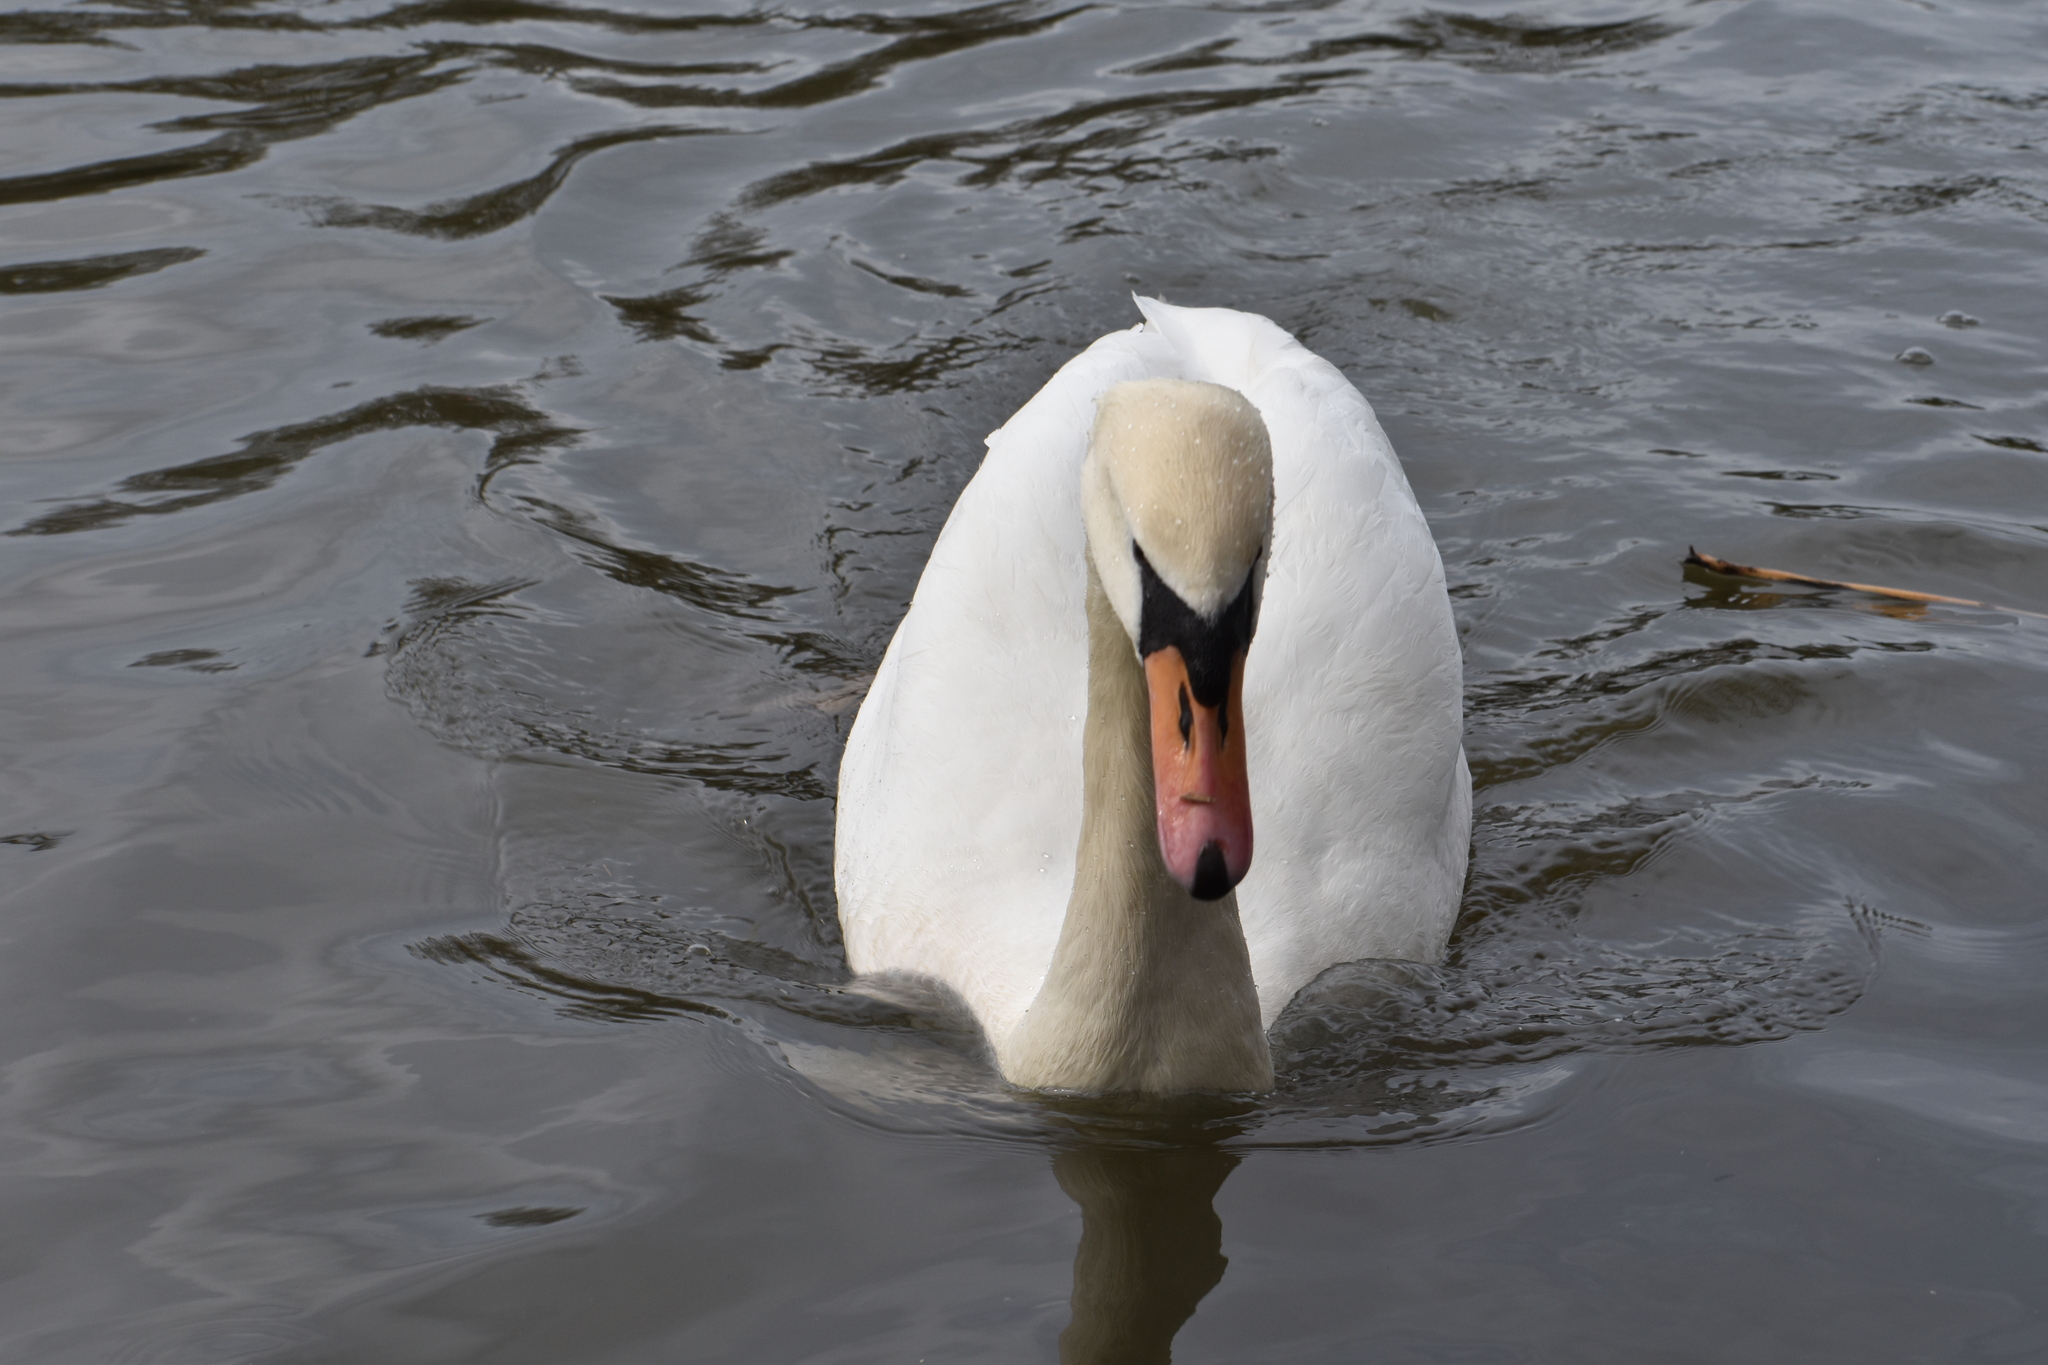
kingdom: Animalia
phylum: Chordata
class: Aves
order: Anseriformes
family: Anatidae
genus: Cygnus
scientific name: Cygnus olor
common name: Mute swan
